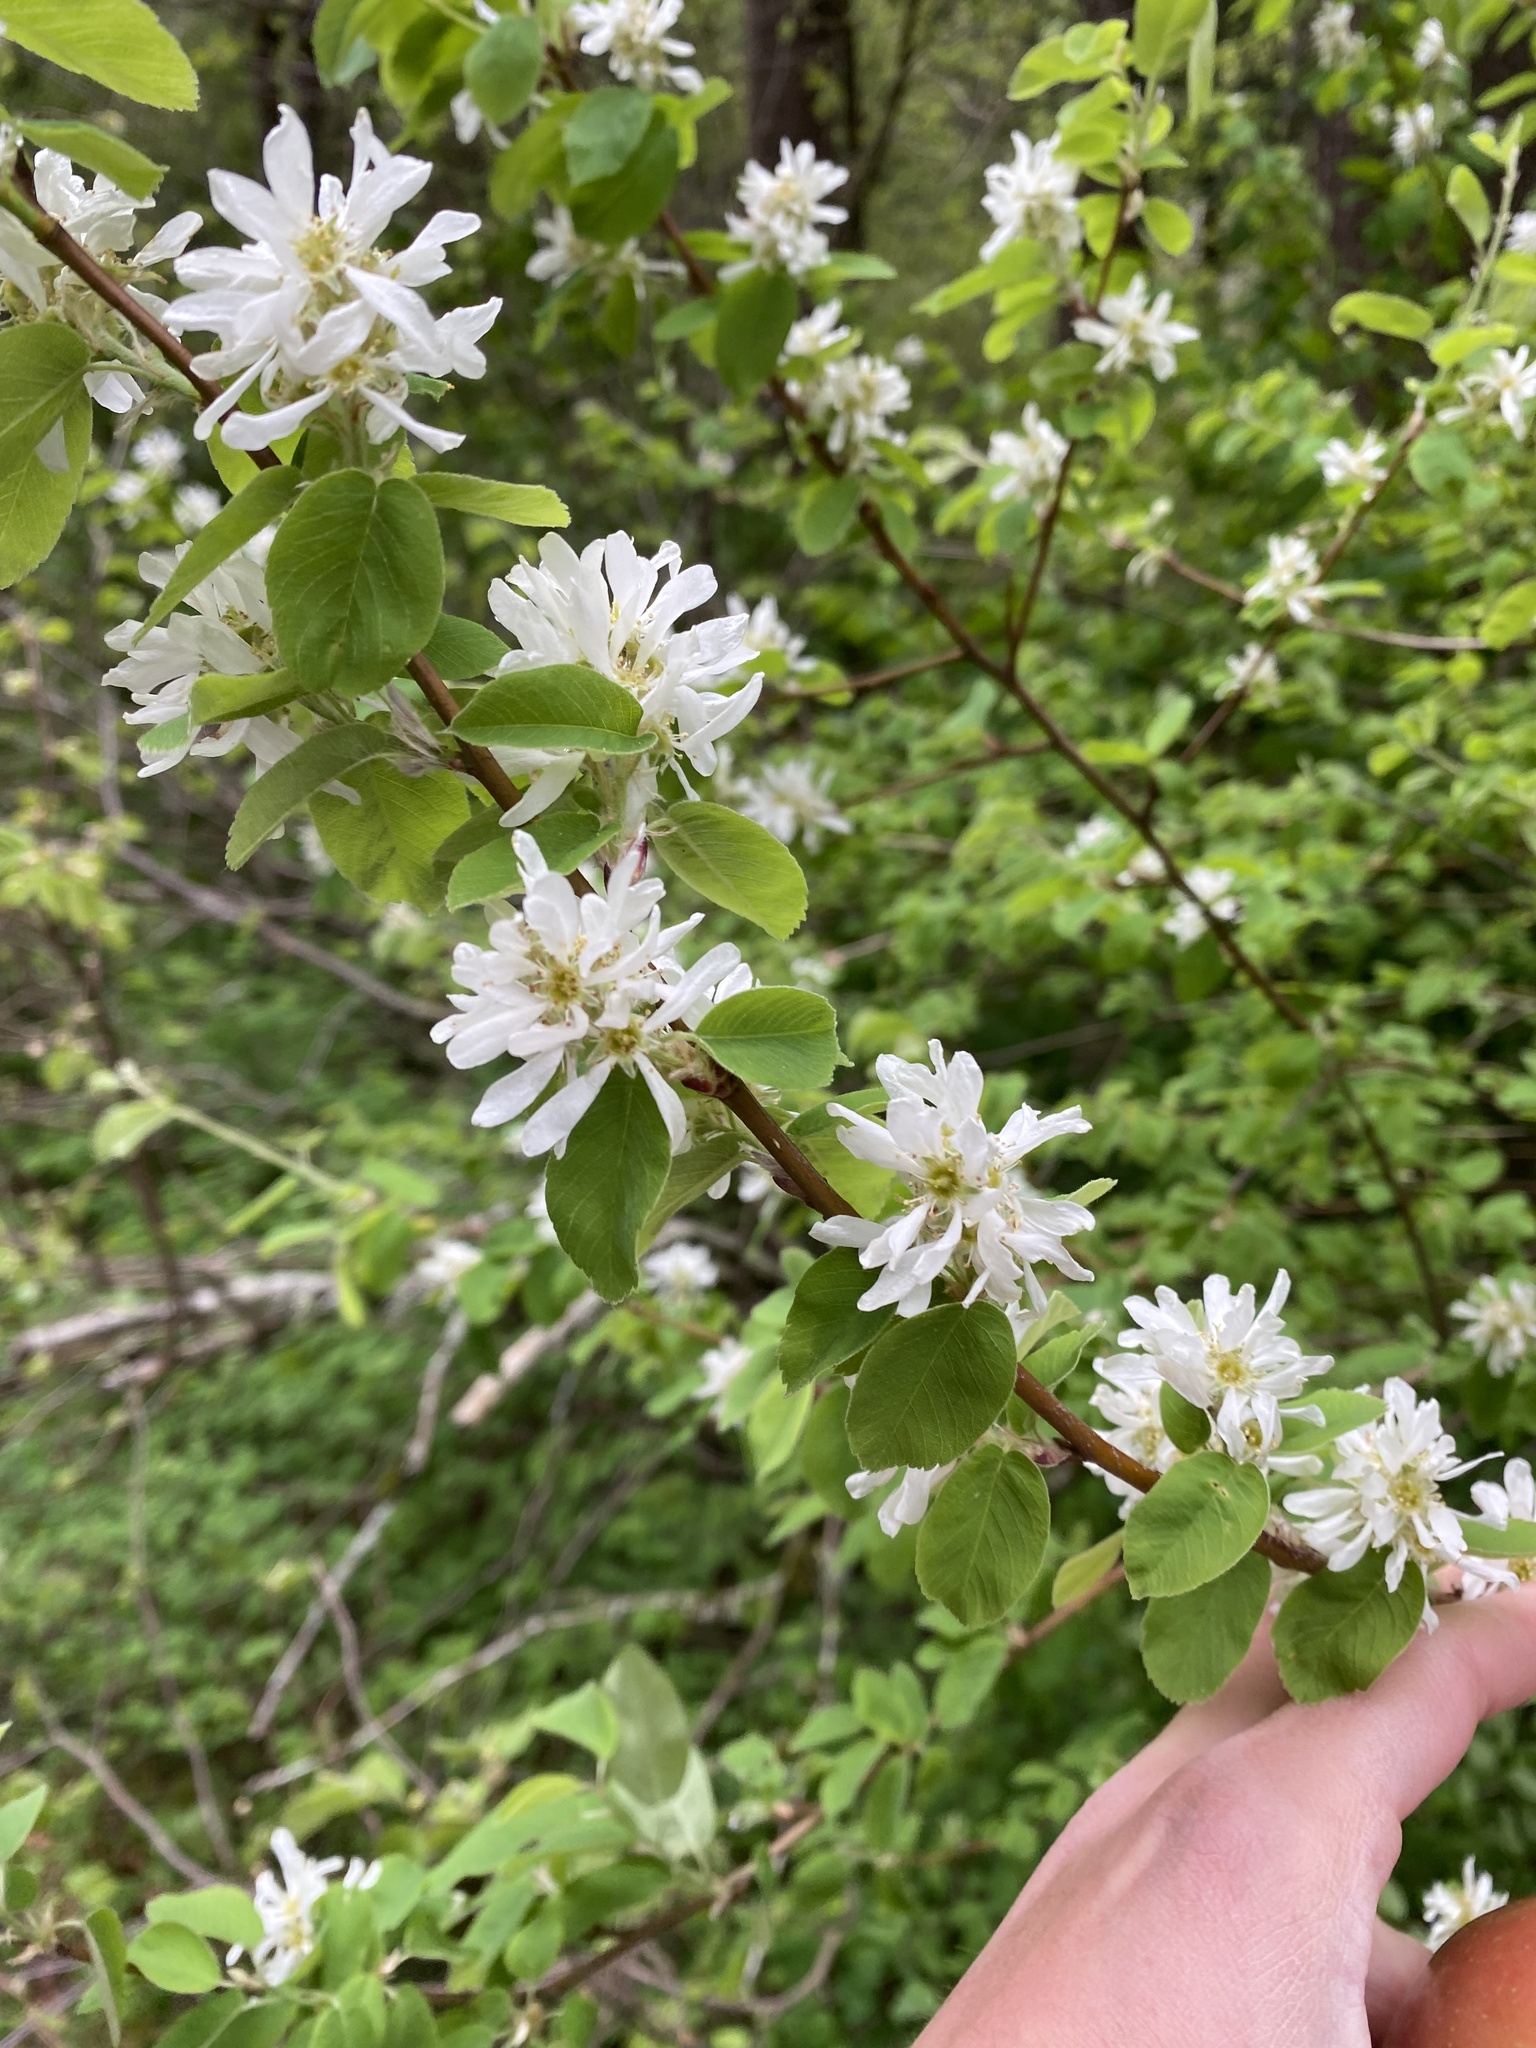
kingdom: Plantae
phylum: Tracheophyta
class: Magnoliopsida
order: Rosales
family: Rosaceae
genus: Amelanchier
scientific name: Amelanchier alnifolia
